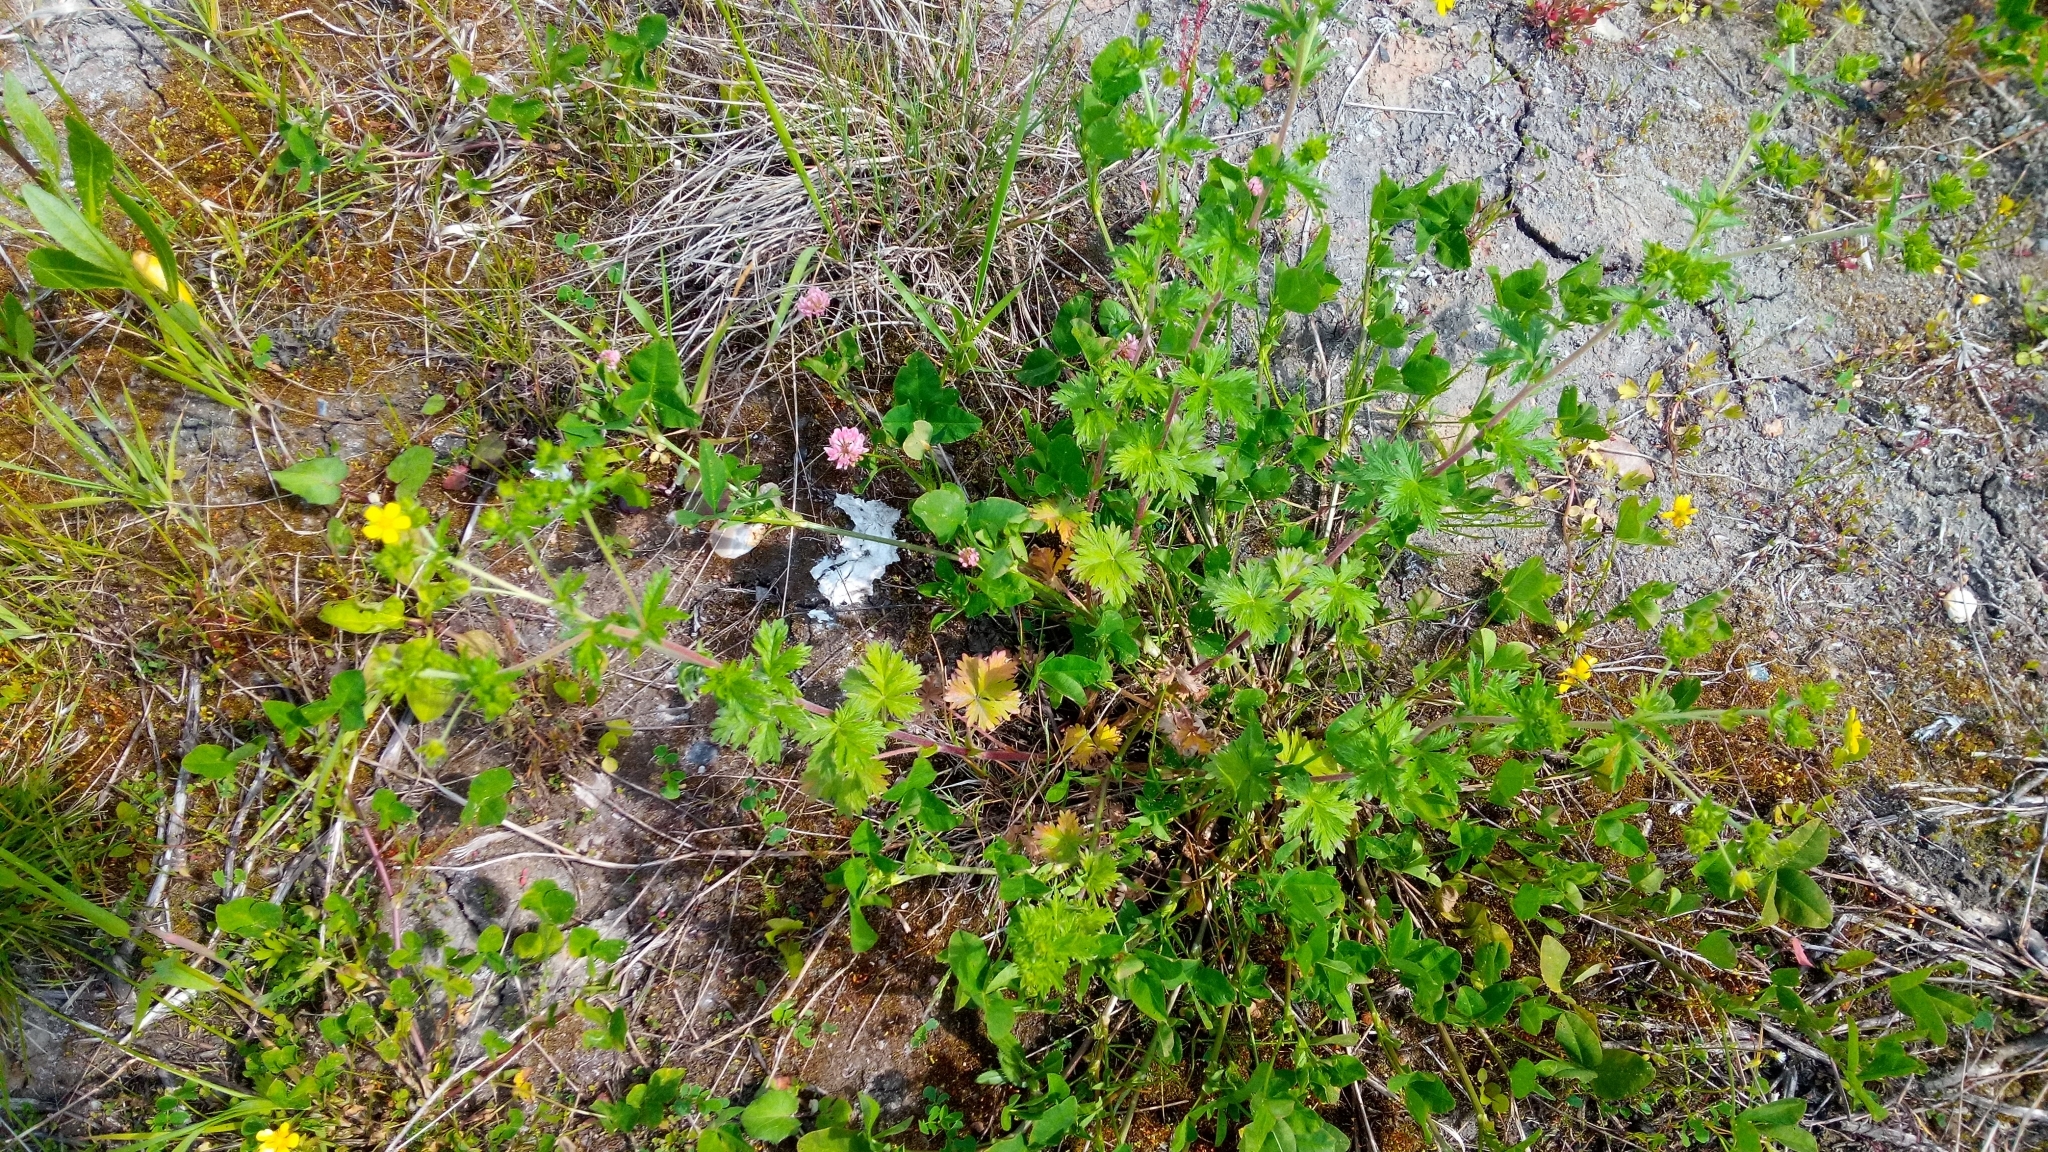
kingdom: Plantae
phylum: Tracheophyta
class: Magnoliopsida
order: Rosales
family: Rosaceae
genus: Potentilla
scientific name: Potentilla intermedia
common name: Downy cinquefoil
